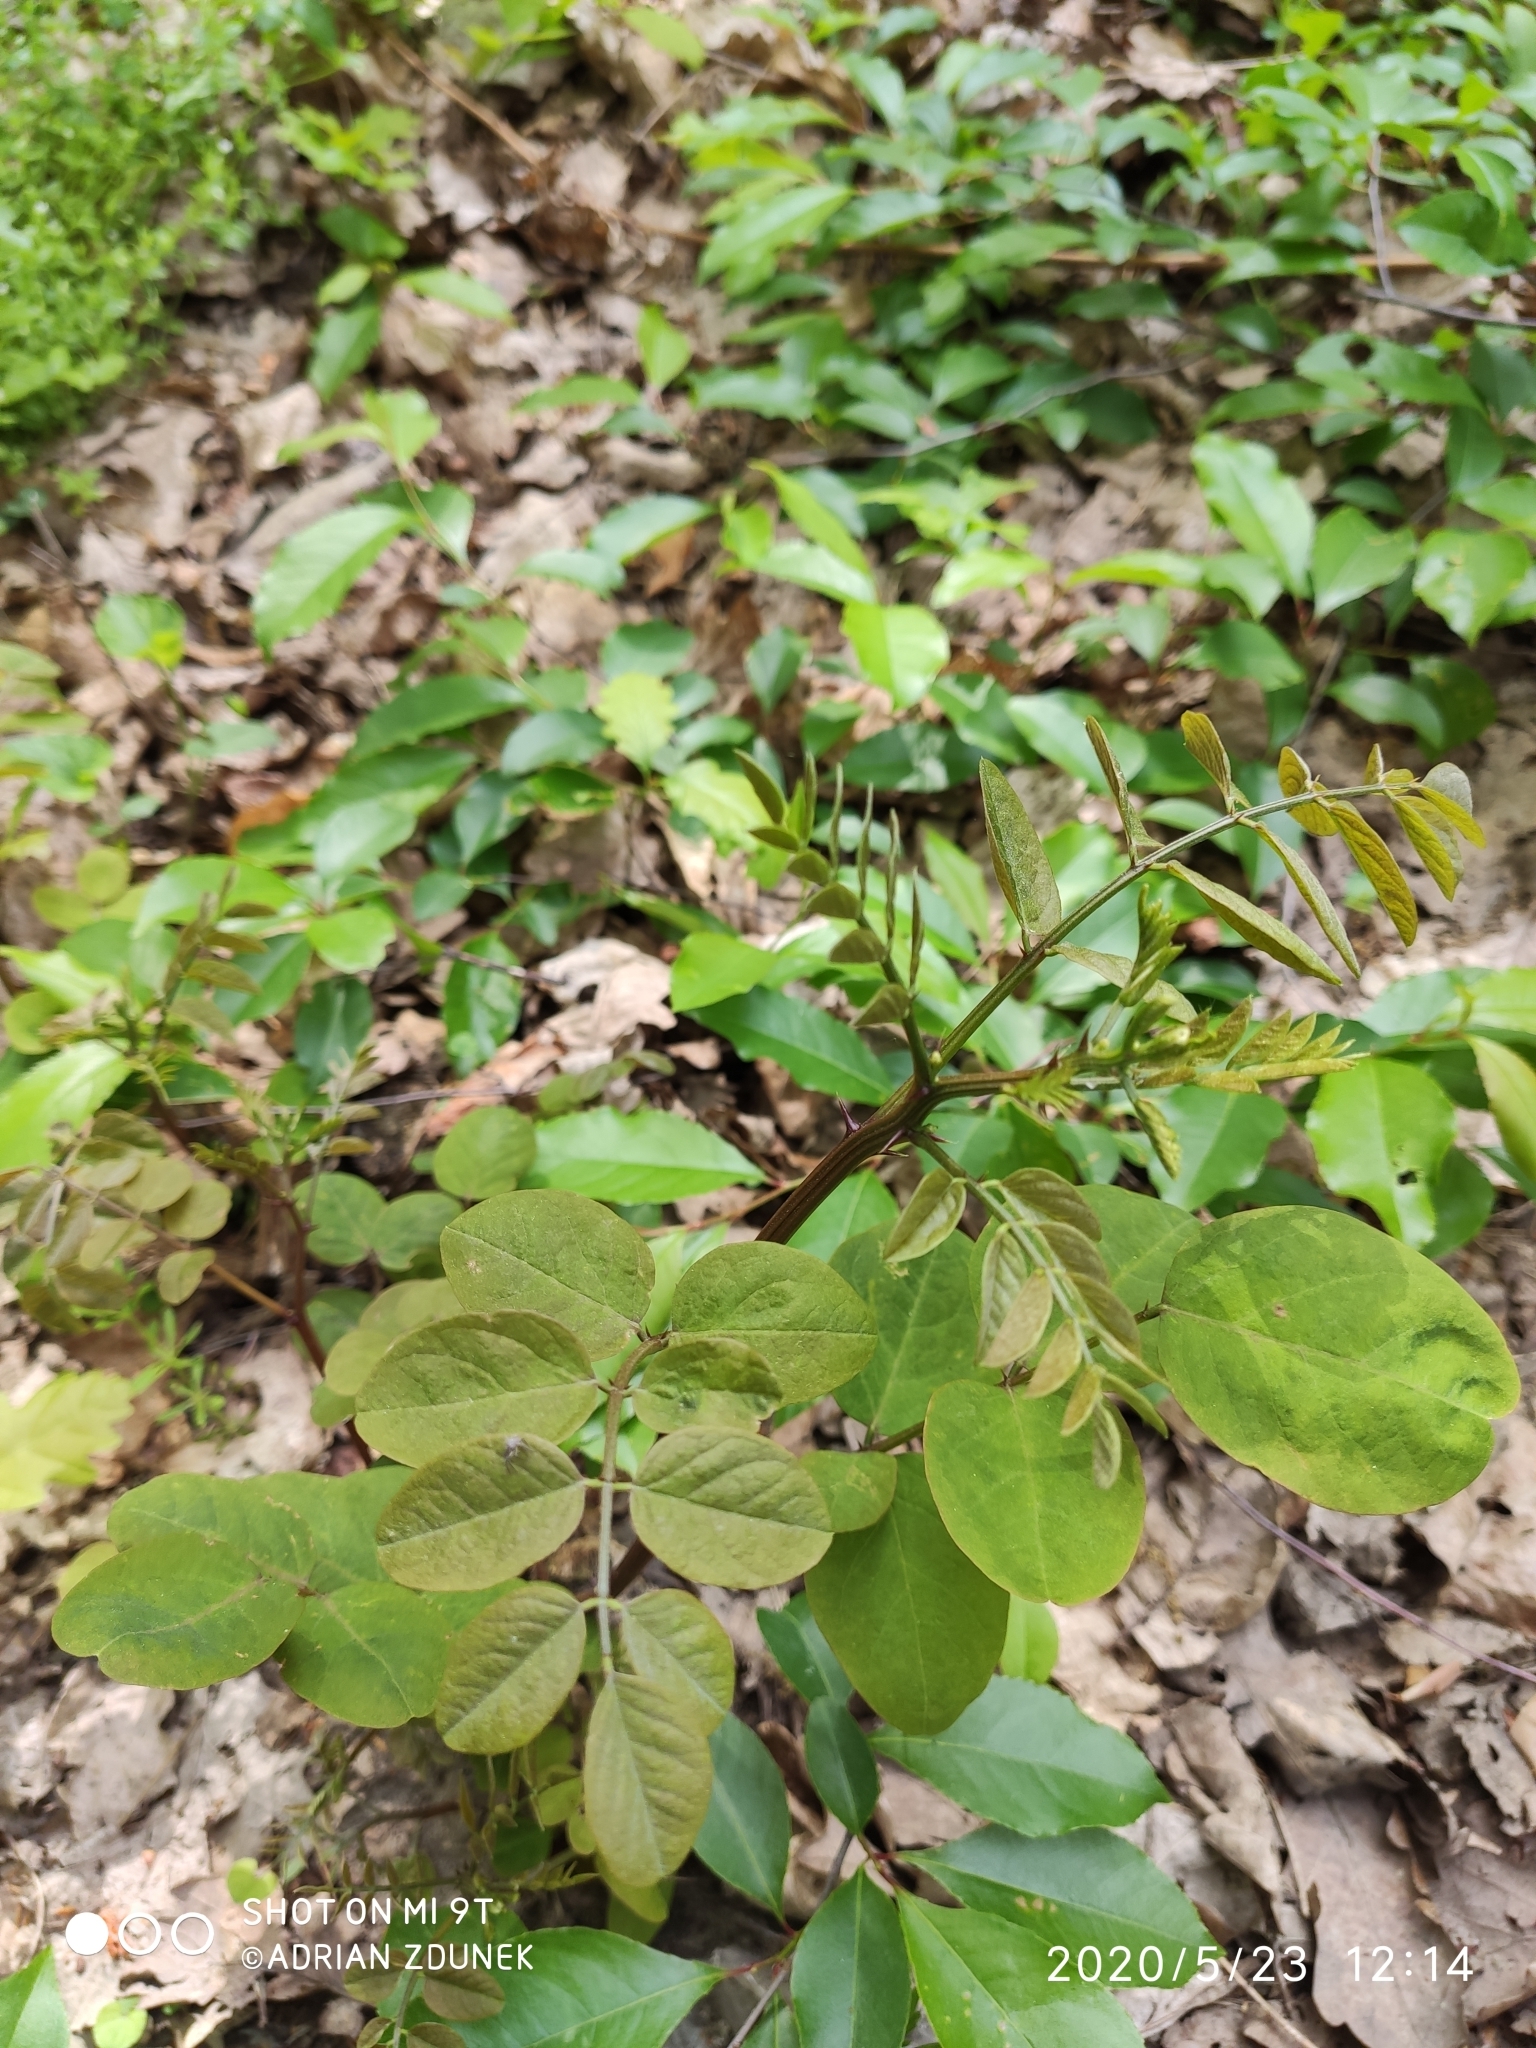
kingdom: Plantae
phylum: Tracheophyta
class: Magnoliopsida
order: Fabales
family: Fabaceae
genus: Robinia
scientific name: Robinia pseudoacacia
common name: Black locust
